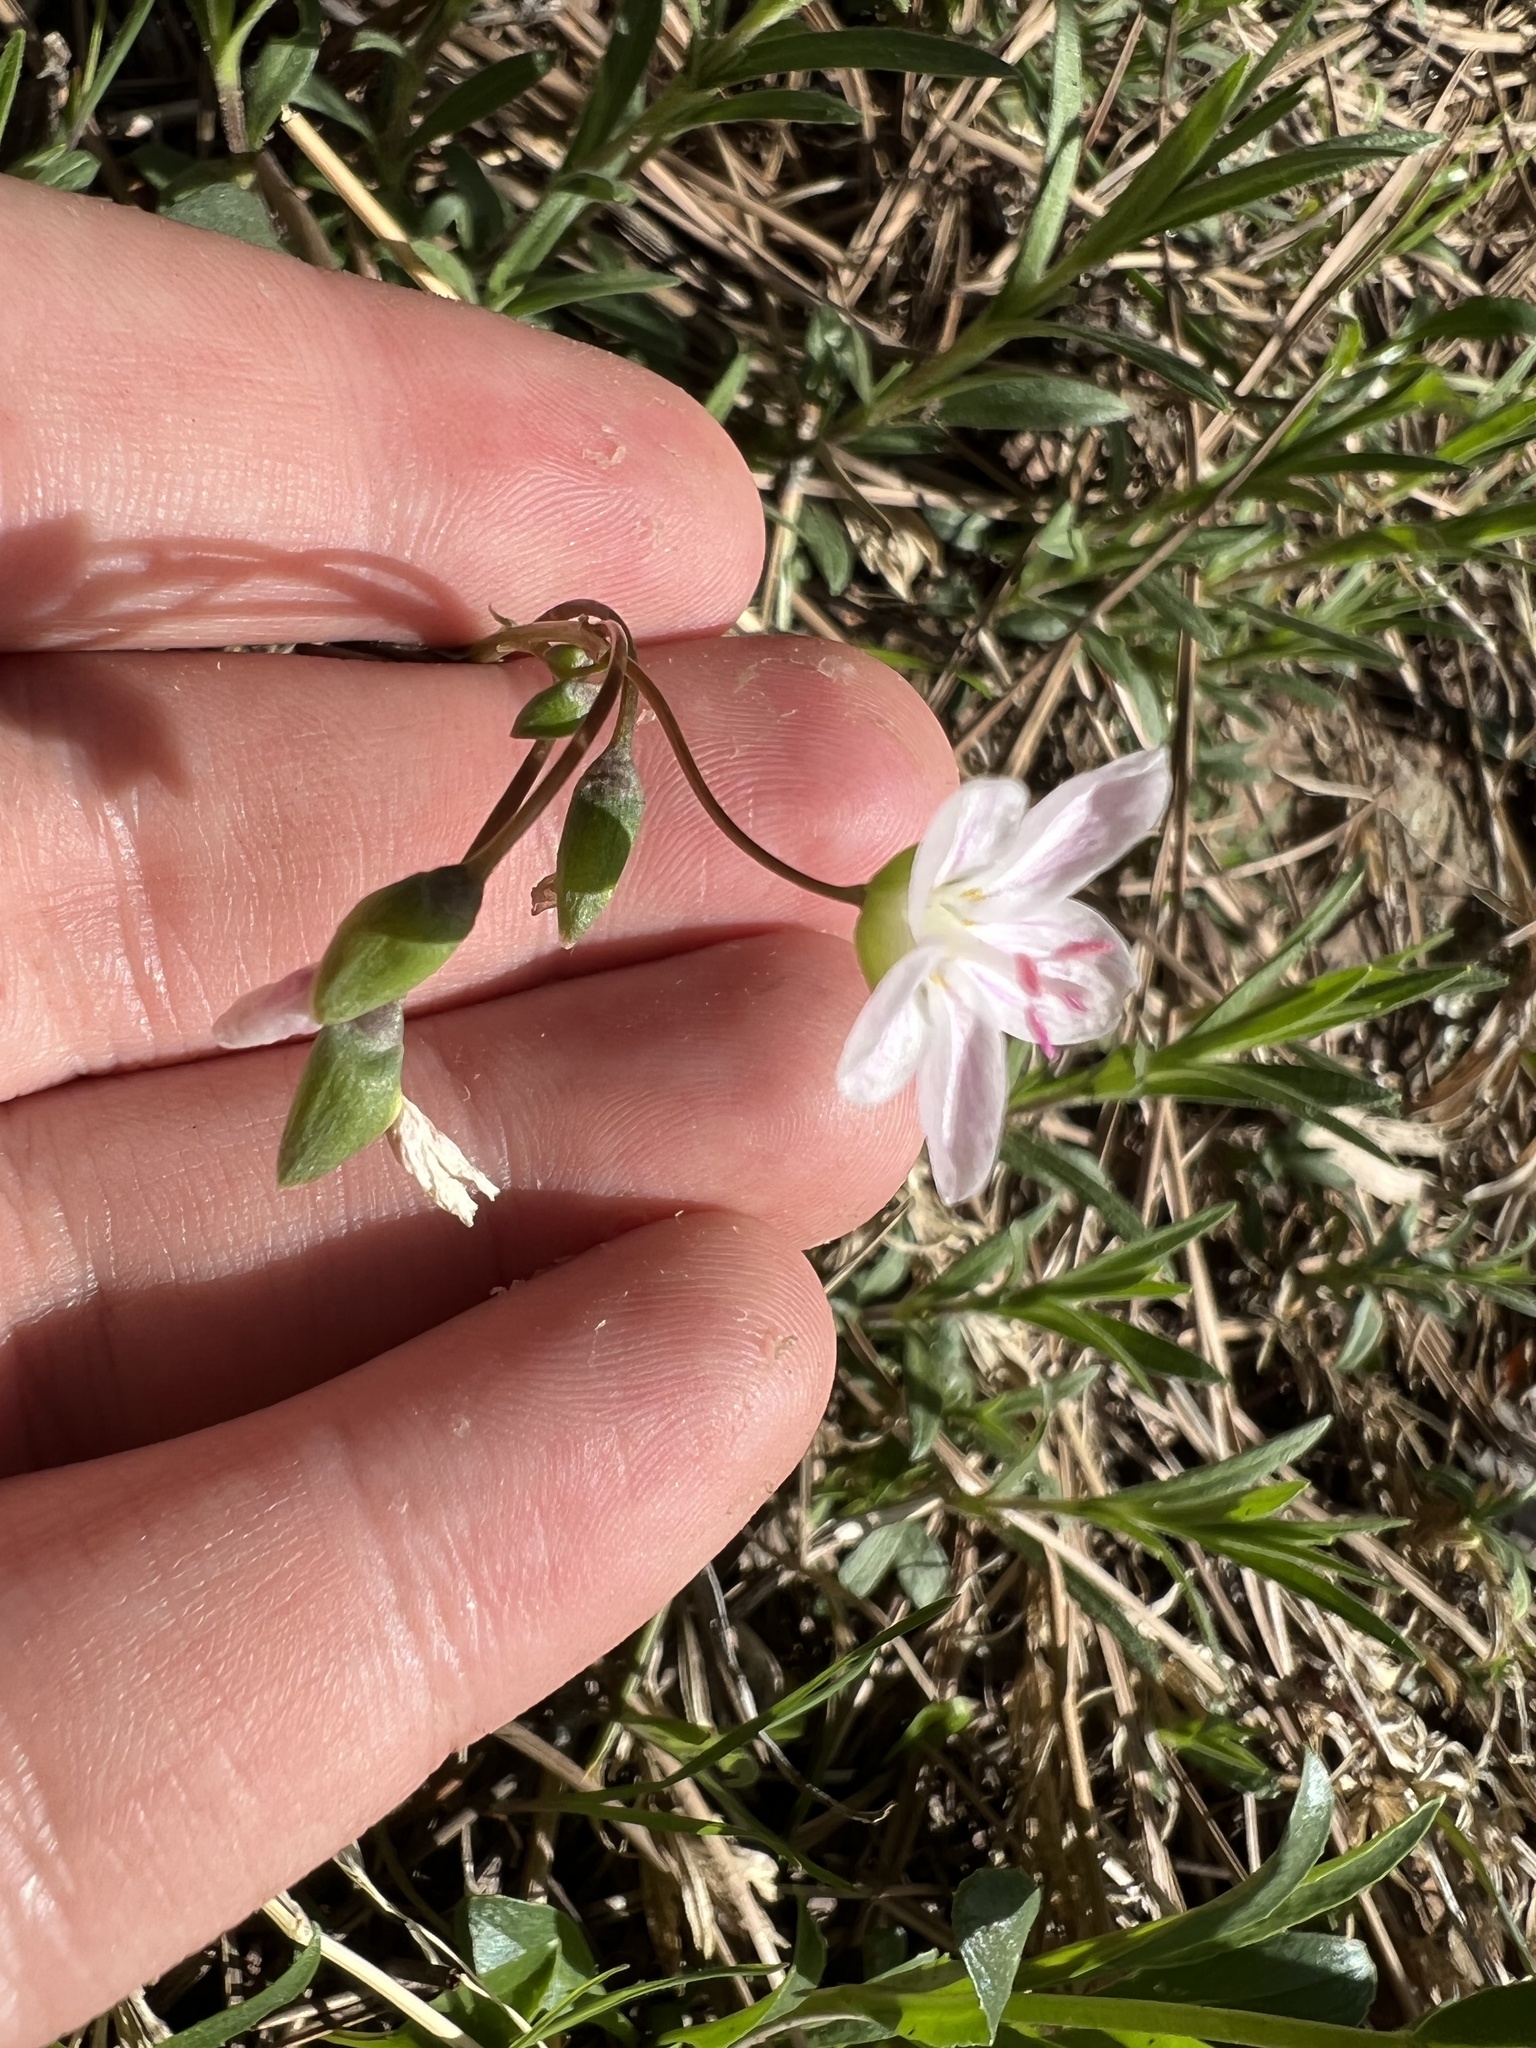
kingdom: Plantae
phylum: Tracheophyta
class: Magnoliopsida
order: Caryophyllales
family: Montiaceae
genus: Claytonia
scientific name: Claytonia rosea
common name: Rocky mountain spring-beauty
